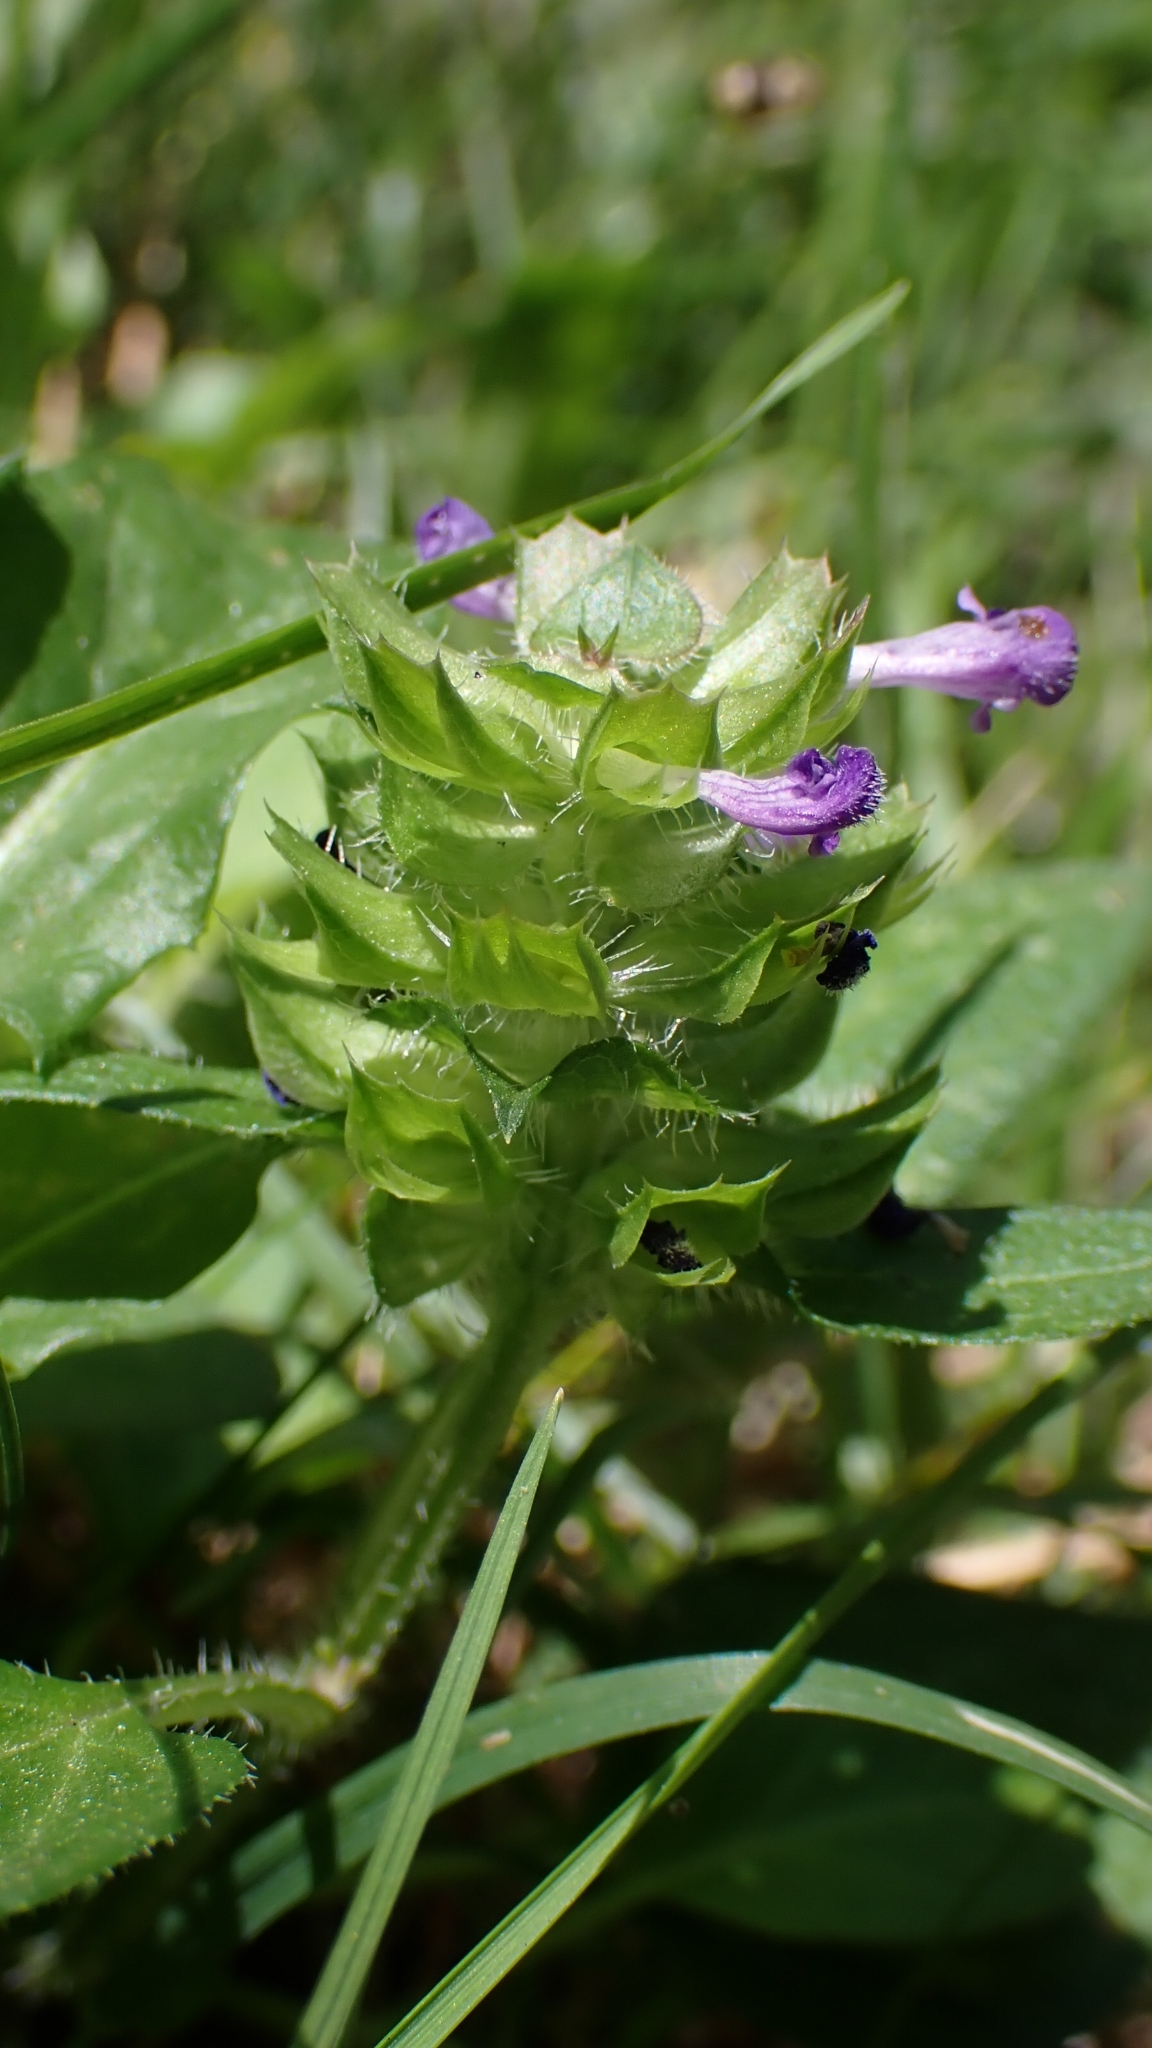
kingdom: Plantae
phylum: Tracheophyta
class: Magnoliopsida
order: Lamiales
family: Lamiaceae
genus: Prunella
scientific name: Prunella vulgaris
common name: Heal-all
